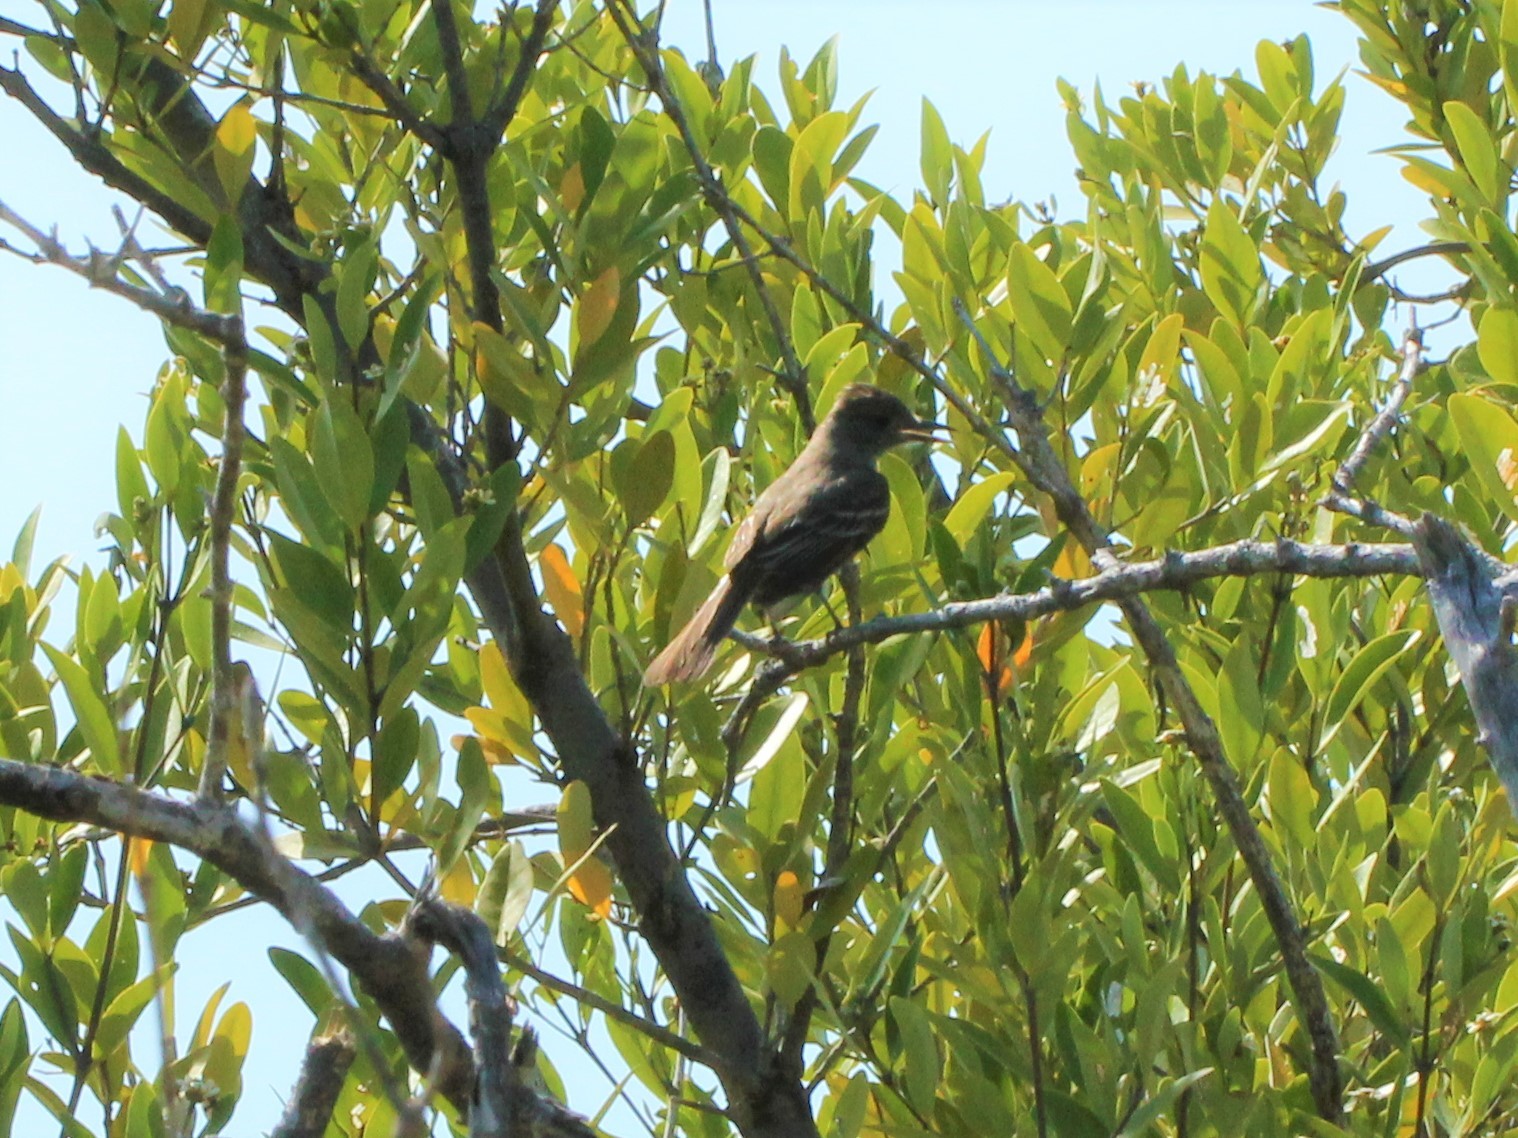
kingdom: Animalia
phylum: Chordata
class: Aves
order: Passeriformes
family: Tyrannidae
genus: Myiarchus
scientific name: Myiarchus crinitus
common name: Great crested flycatcher
